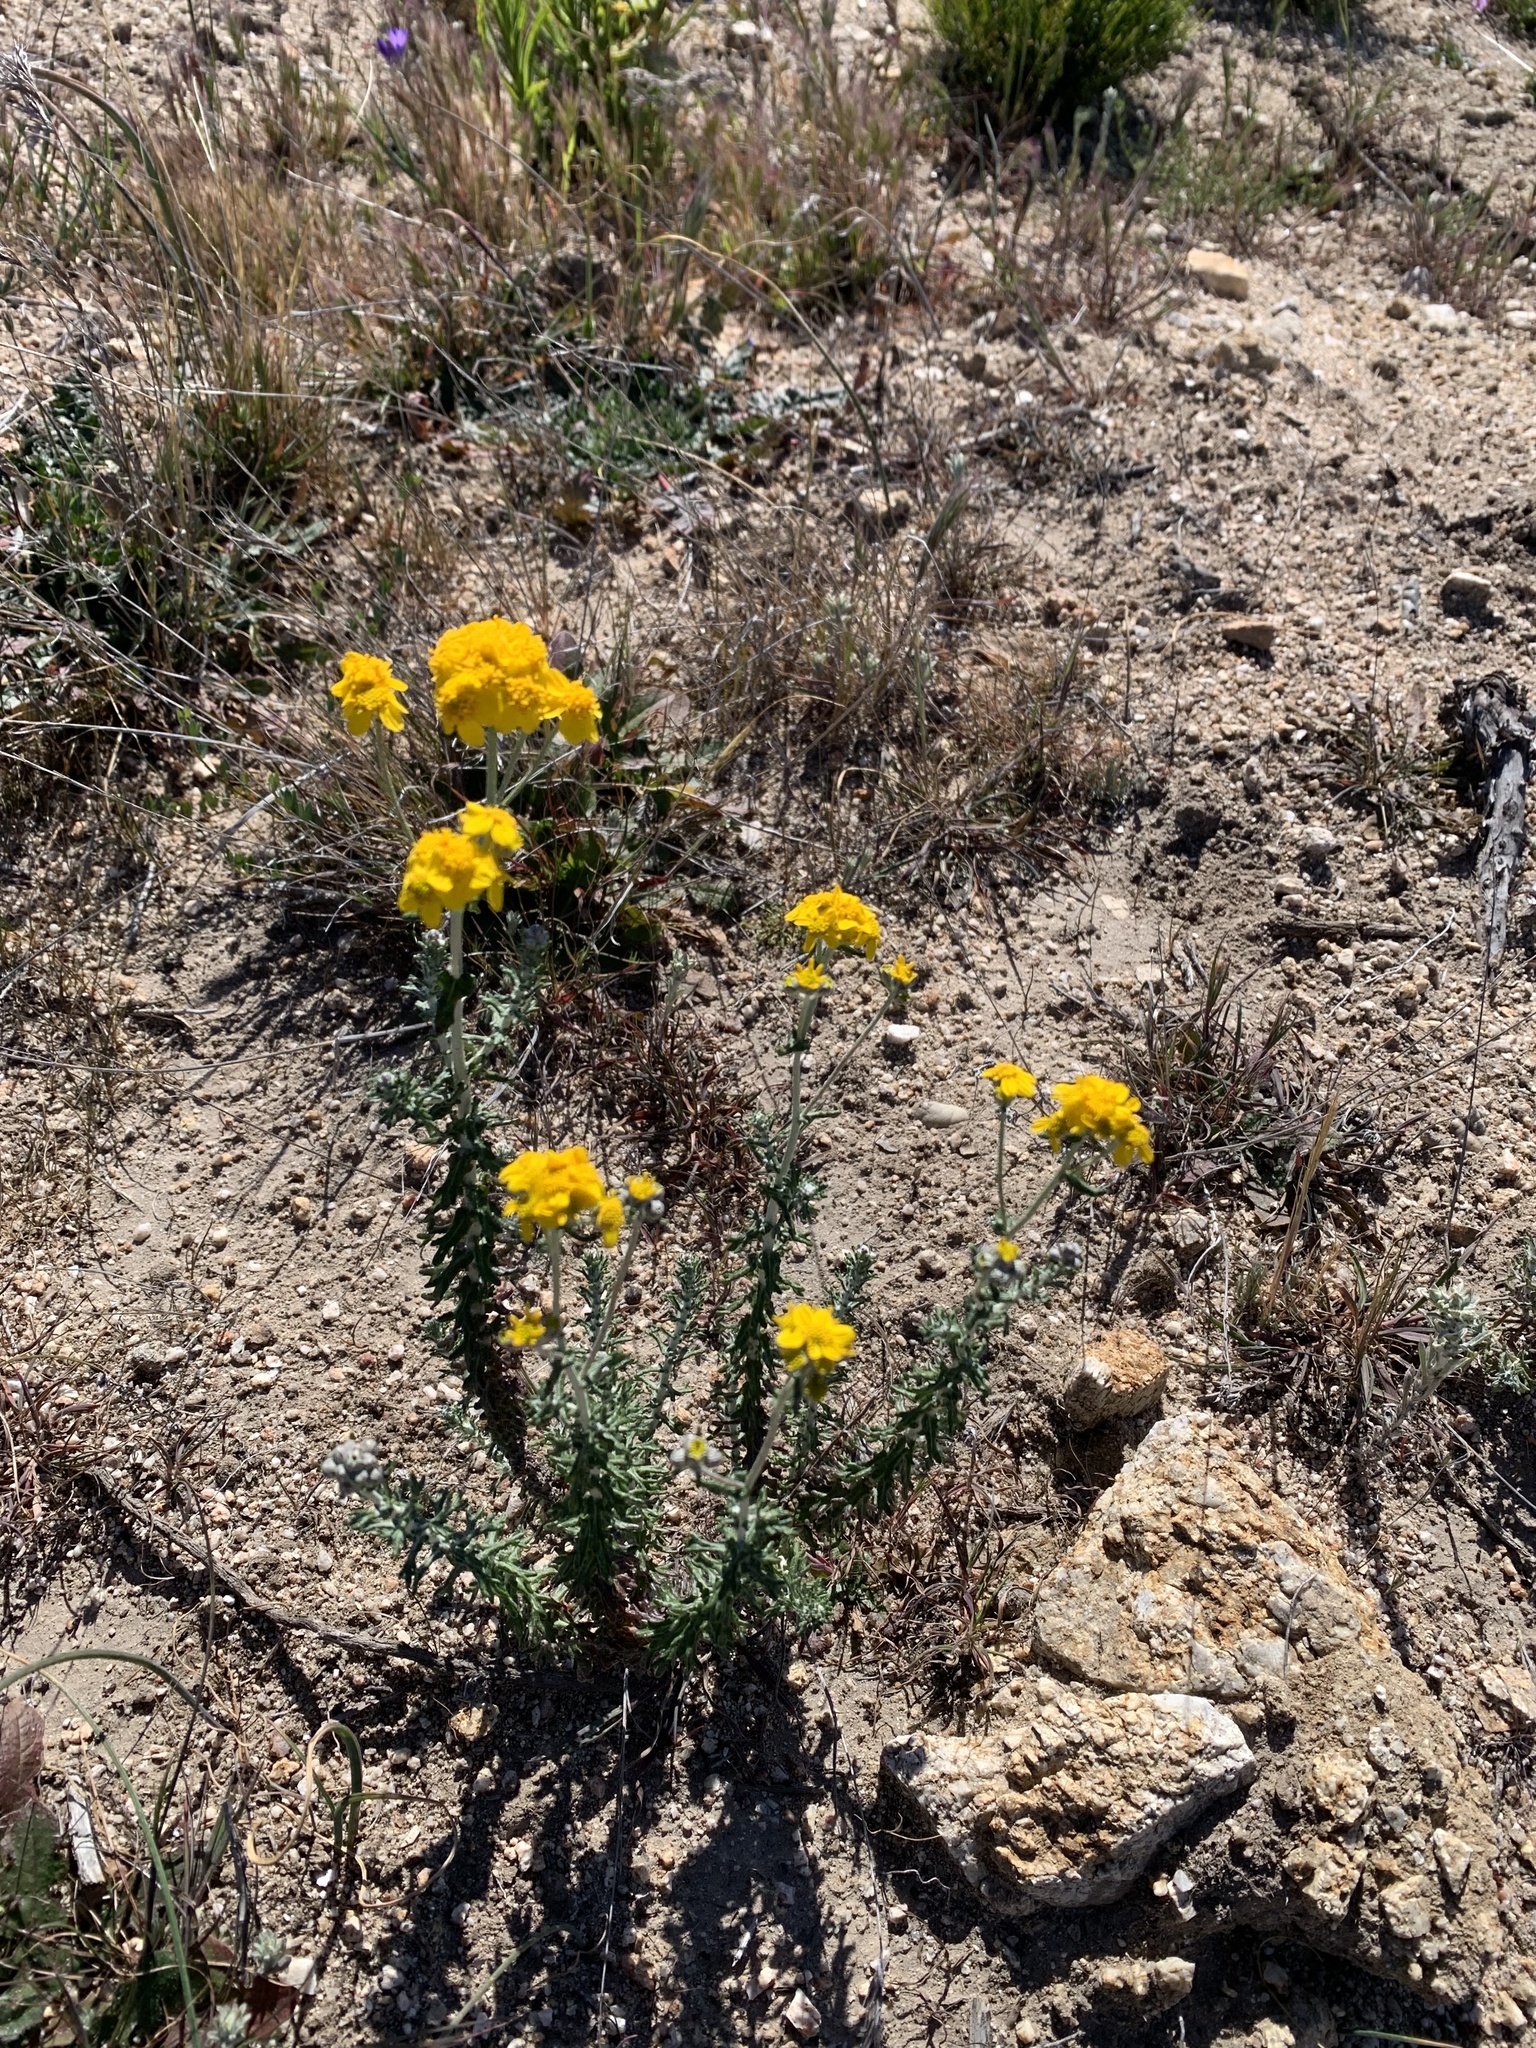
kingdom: Plantae
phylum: Tracheophyta
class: Magnoliopsida
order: Asterales
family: Asteraceae
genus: Eriophyllum
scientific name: Eriophyllum confertiflorum
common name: Golden-yarrow
